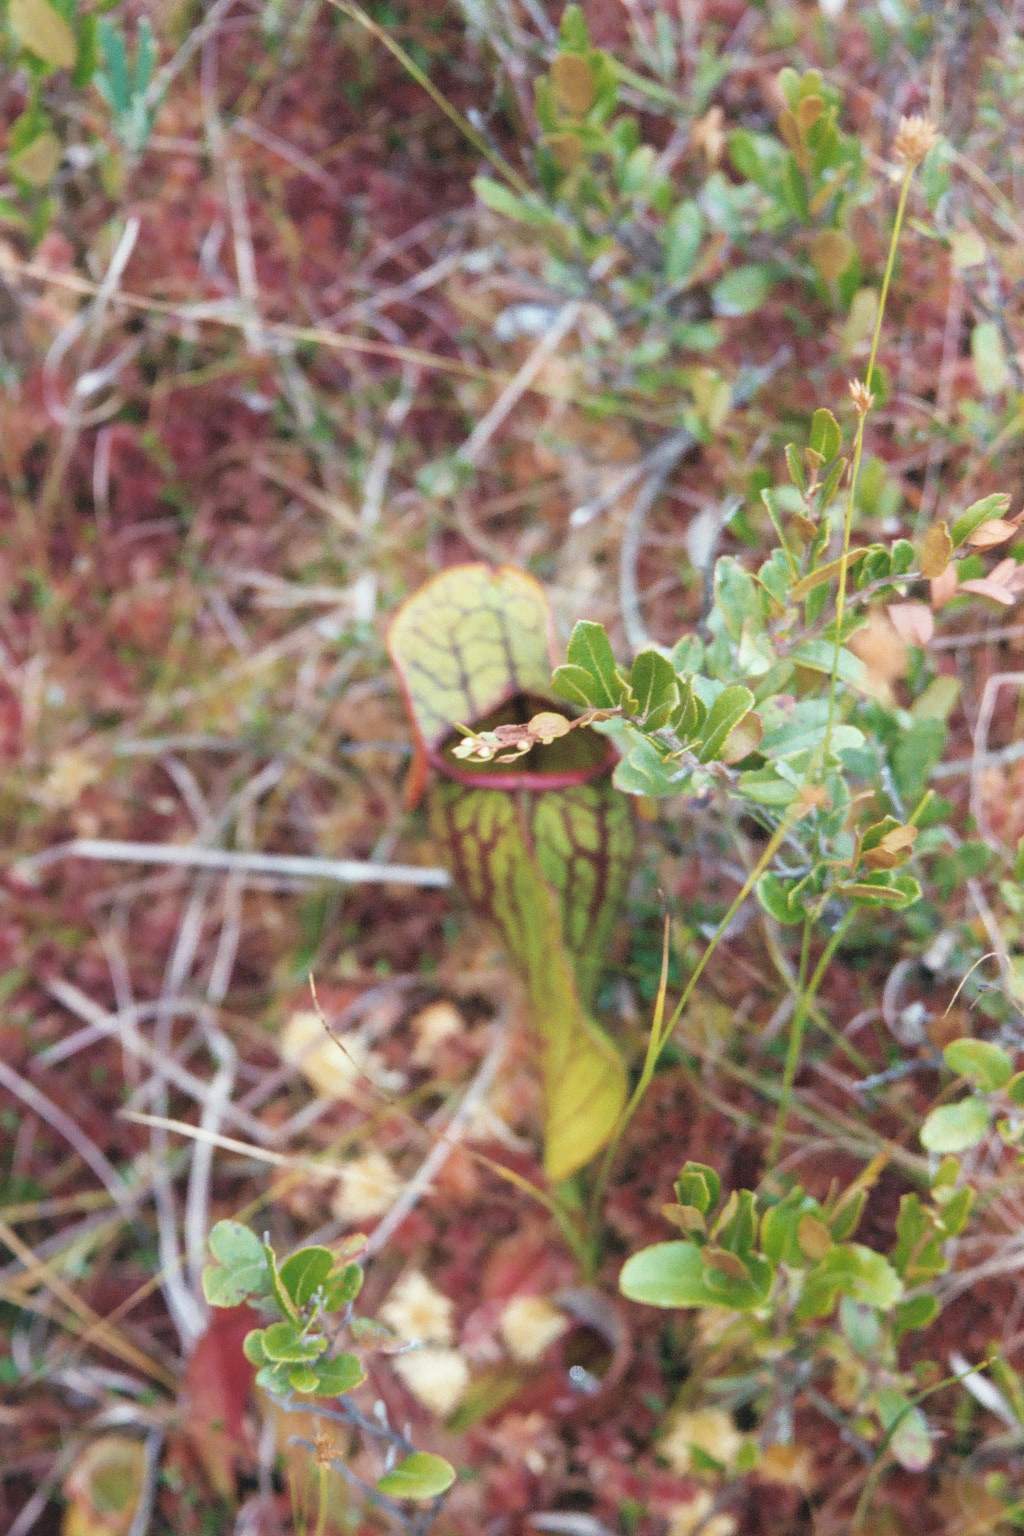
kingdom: Plantae
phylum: Tracheophyta
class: Magnoliopsida
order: Ericales
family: Sarraceniaceae
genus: Sarracenia
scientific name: Sarracenia purpurea
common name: Pitcherplant
